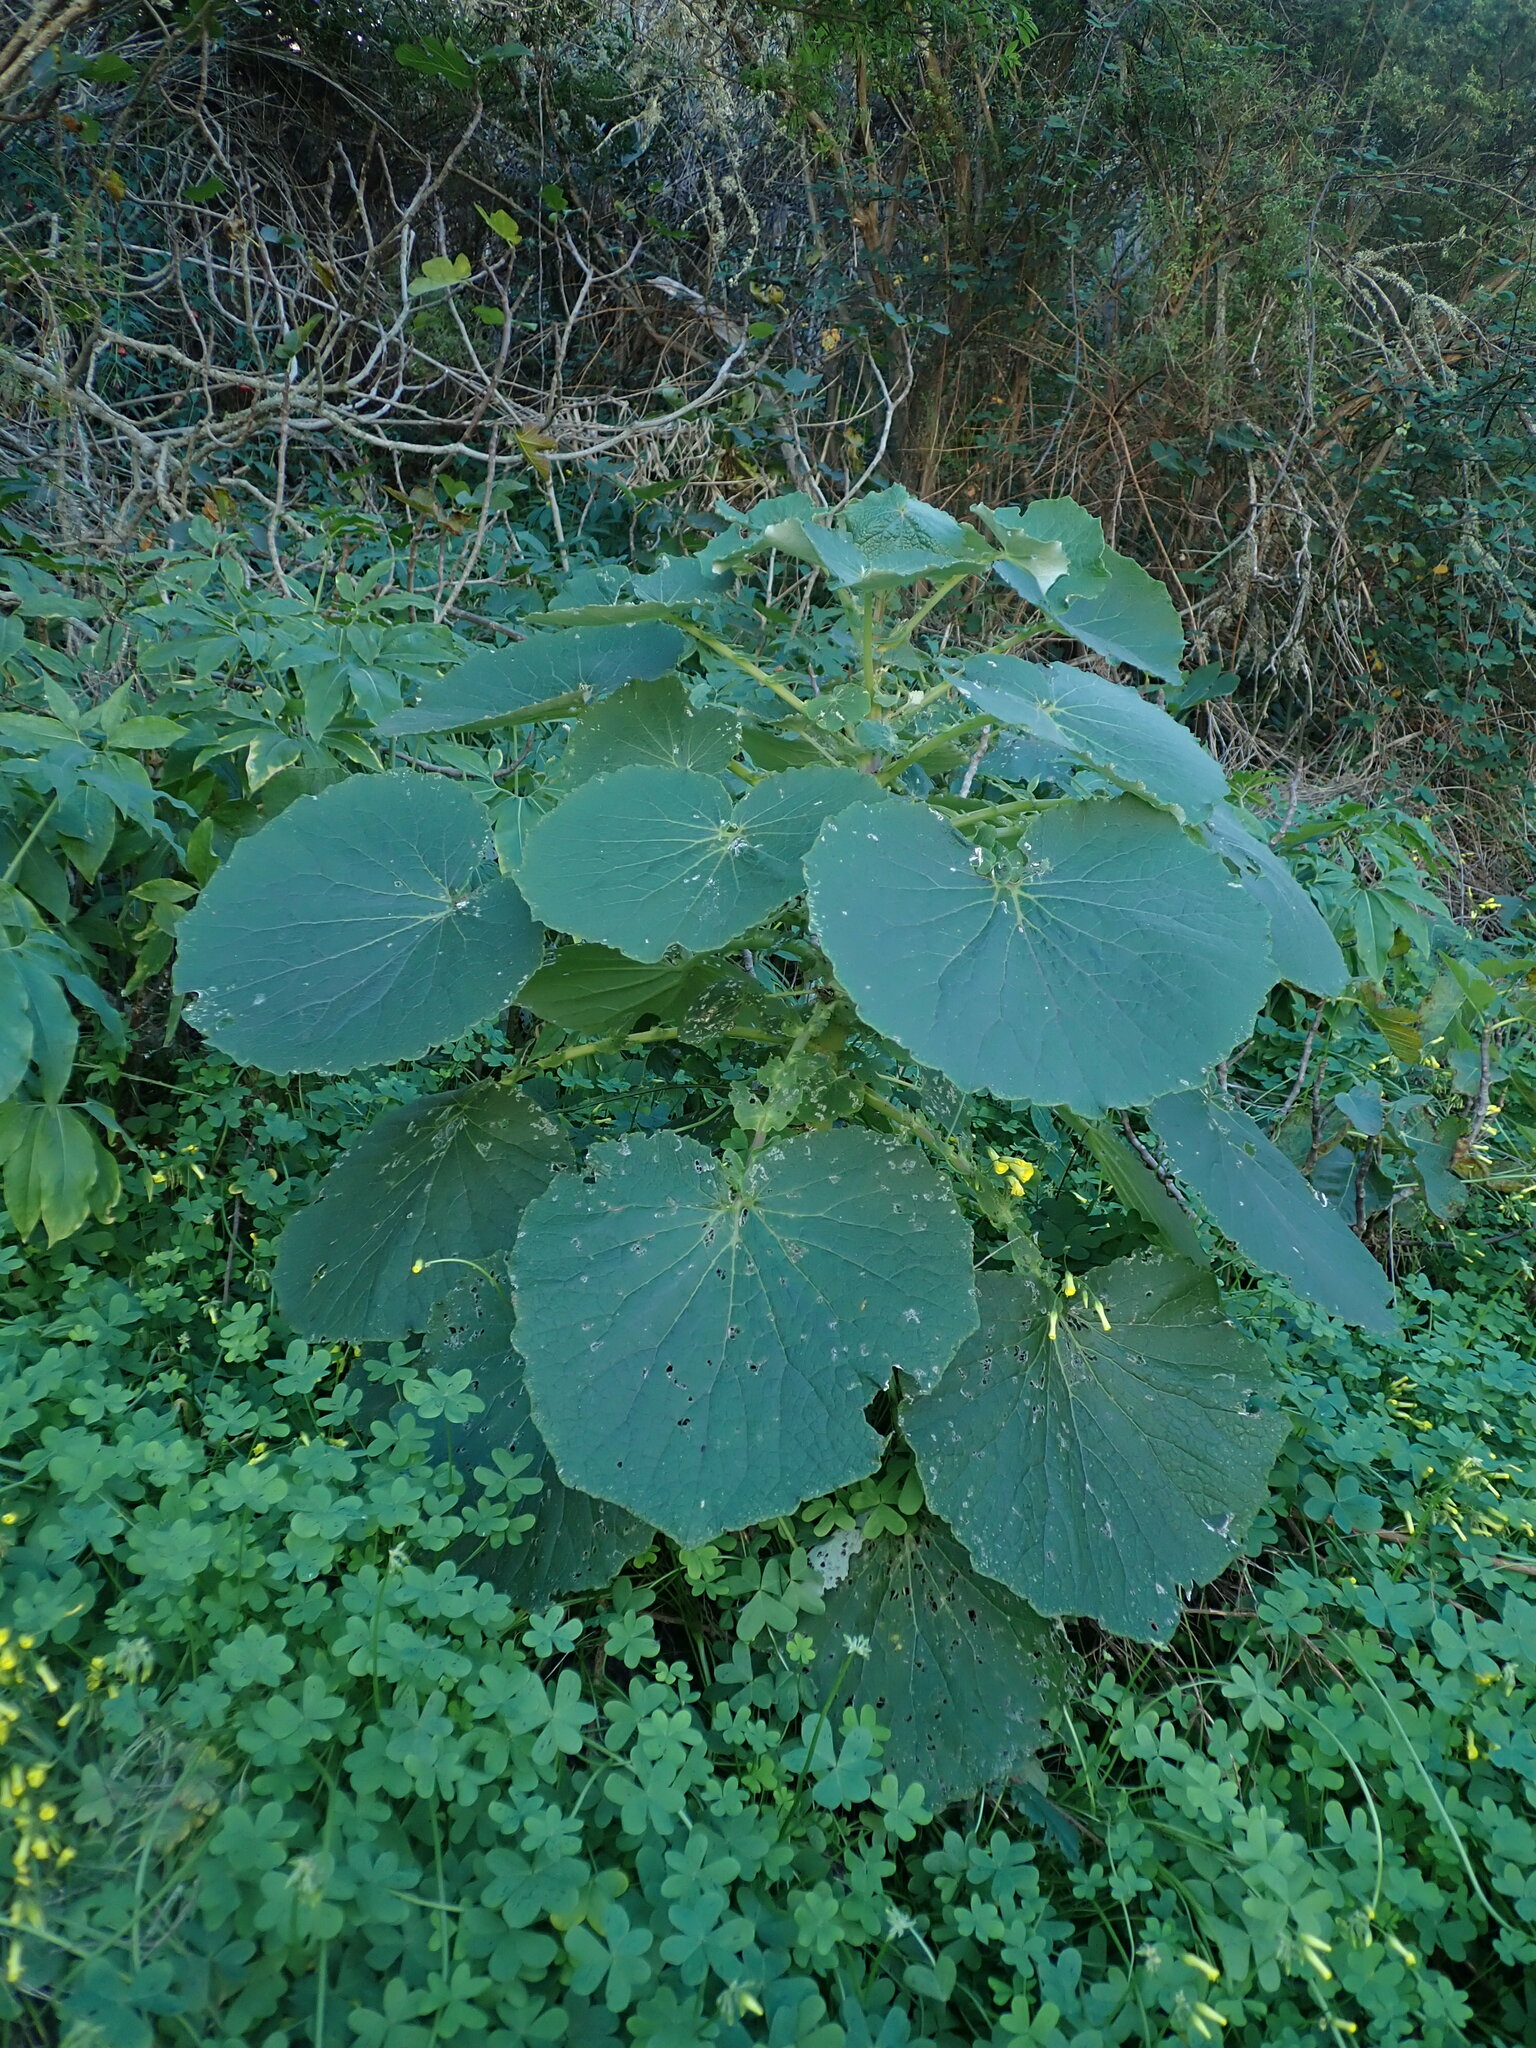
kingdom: Plantae
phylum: Tracheophyta
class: Magnoliopsida
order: Asterales
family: Asteraceae
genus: Pericallis
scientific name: Pericallis webbii
